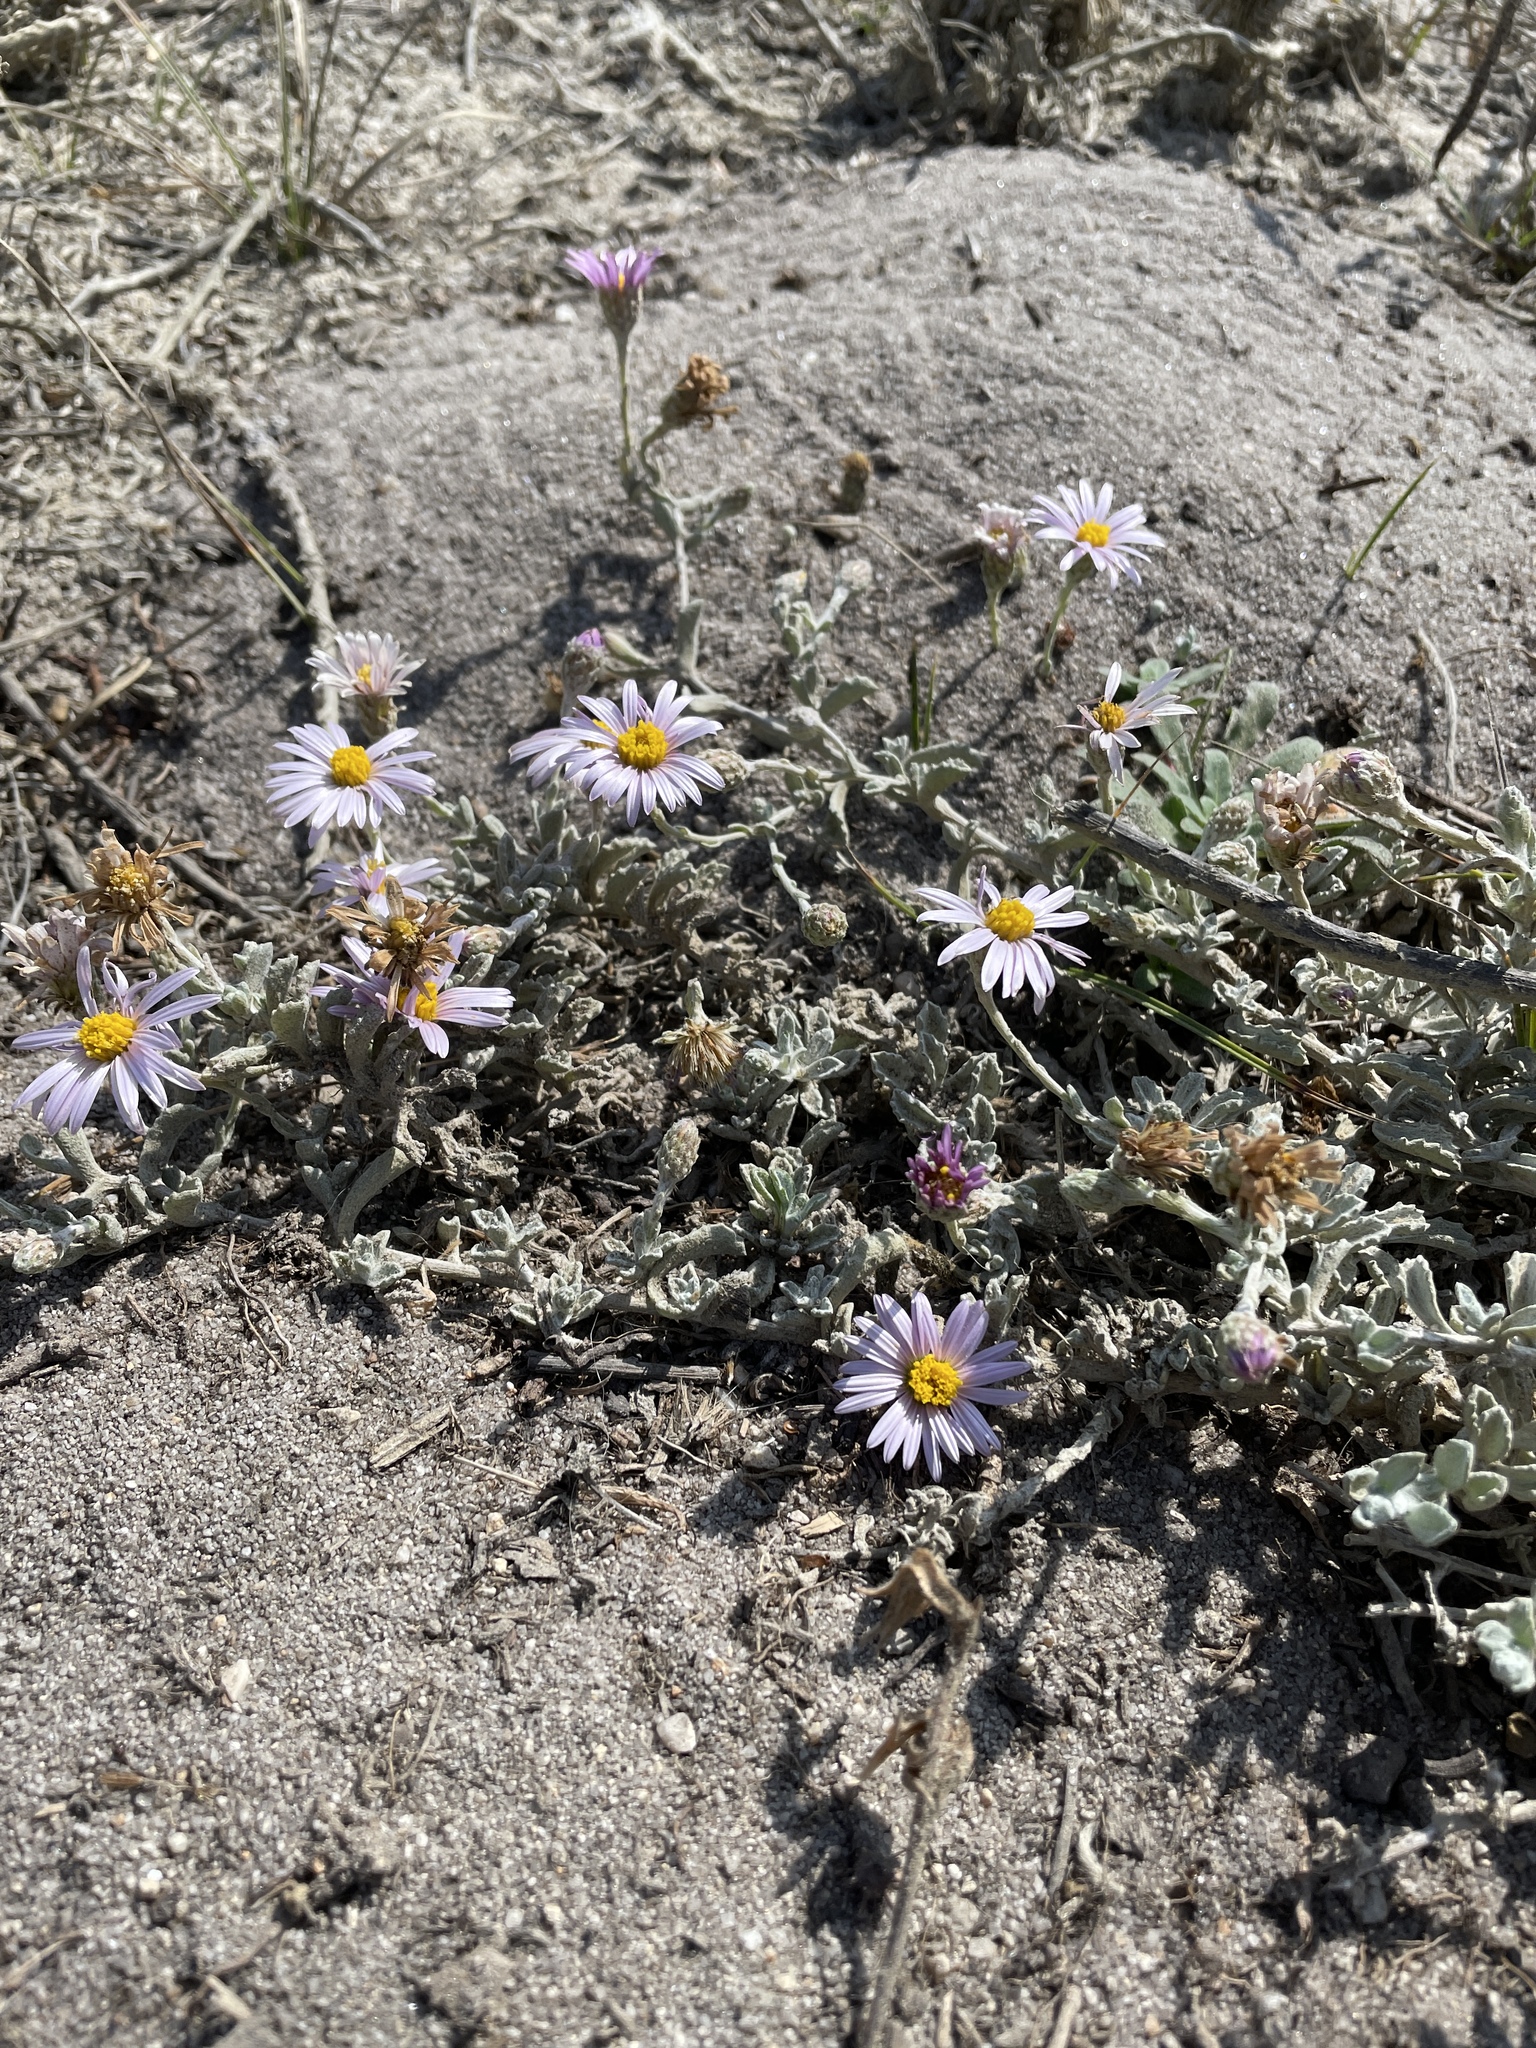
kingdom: Plantae
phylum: Tracheophyta
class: Magnoliopsida
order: Asterales
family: Asteraceae
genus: Corethrogyne
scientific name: Corethrogyne filaginifolia
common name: Sand-aster
